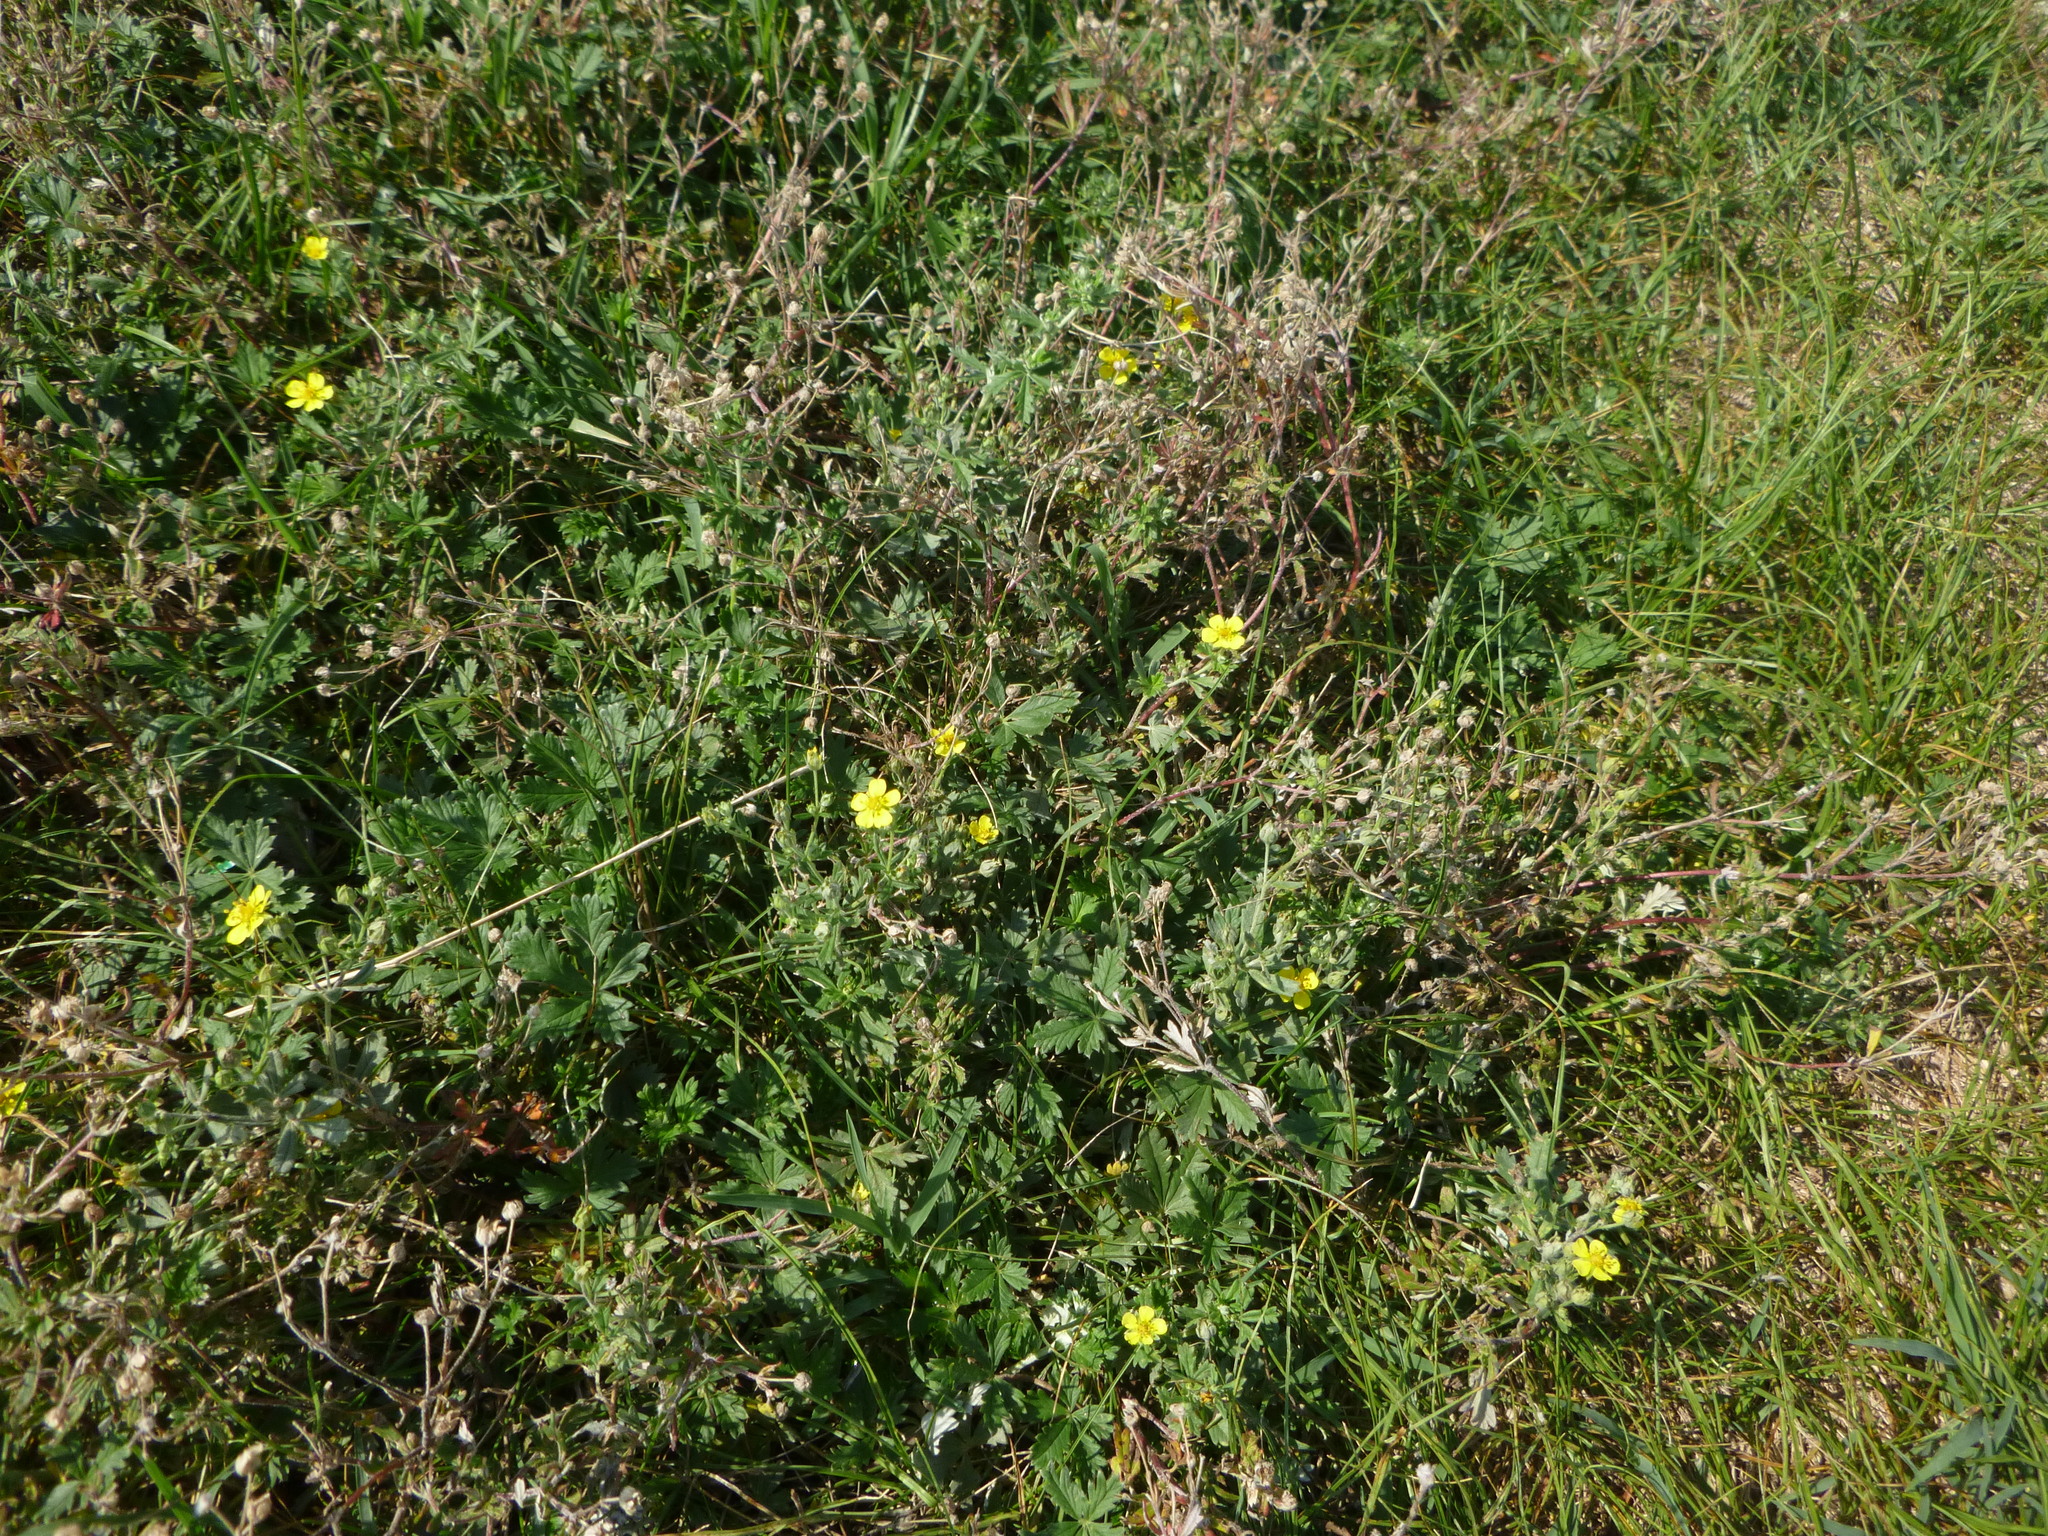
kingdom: Plantae
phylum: Tracheophyta
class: Magnoliopsida
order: Rosales
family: Rosaceae
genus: Potentilla
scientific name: Potentilla argentea
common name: Hoary cinquefoil
